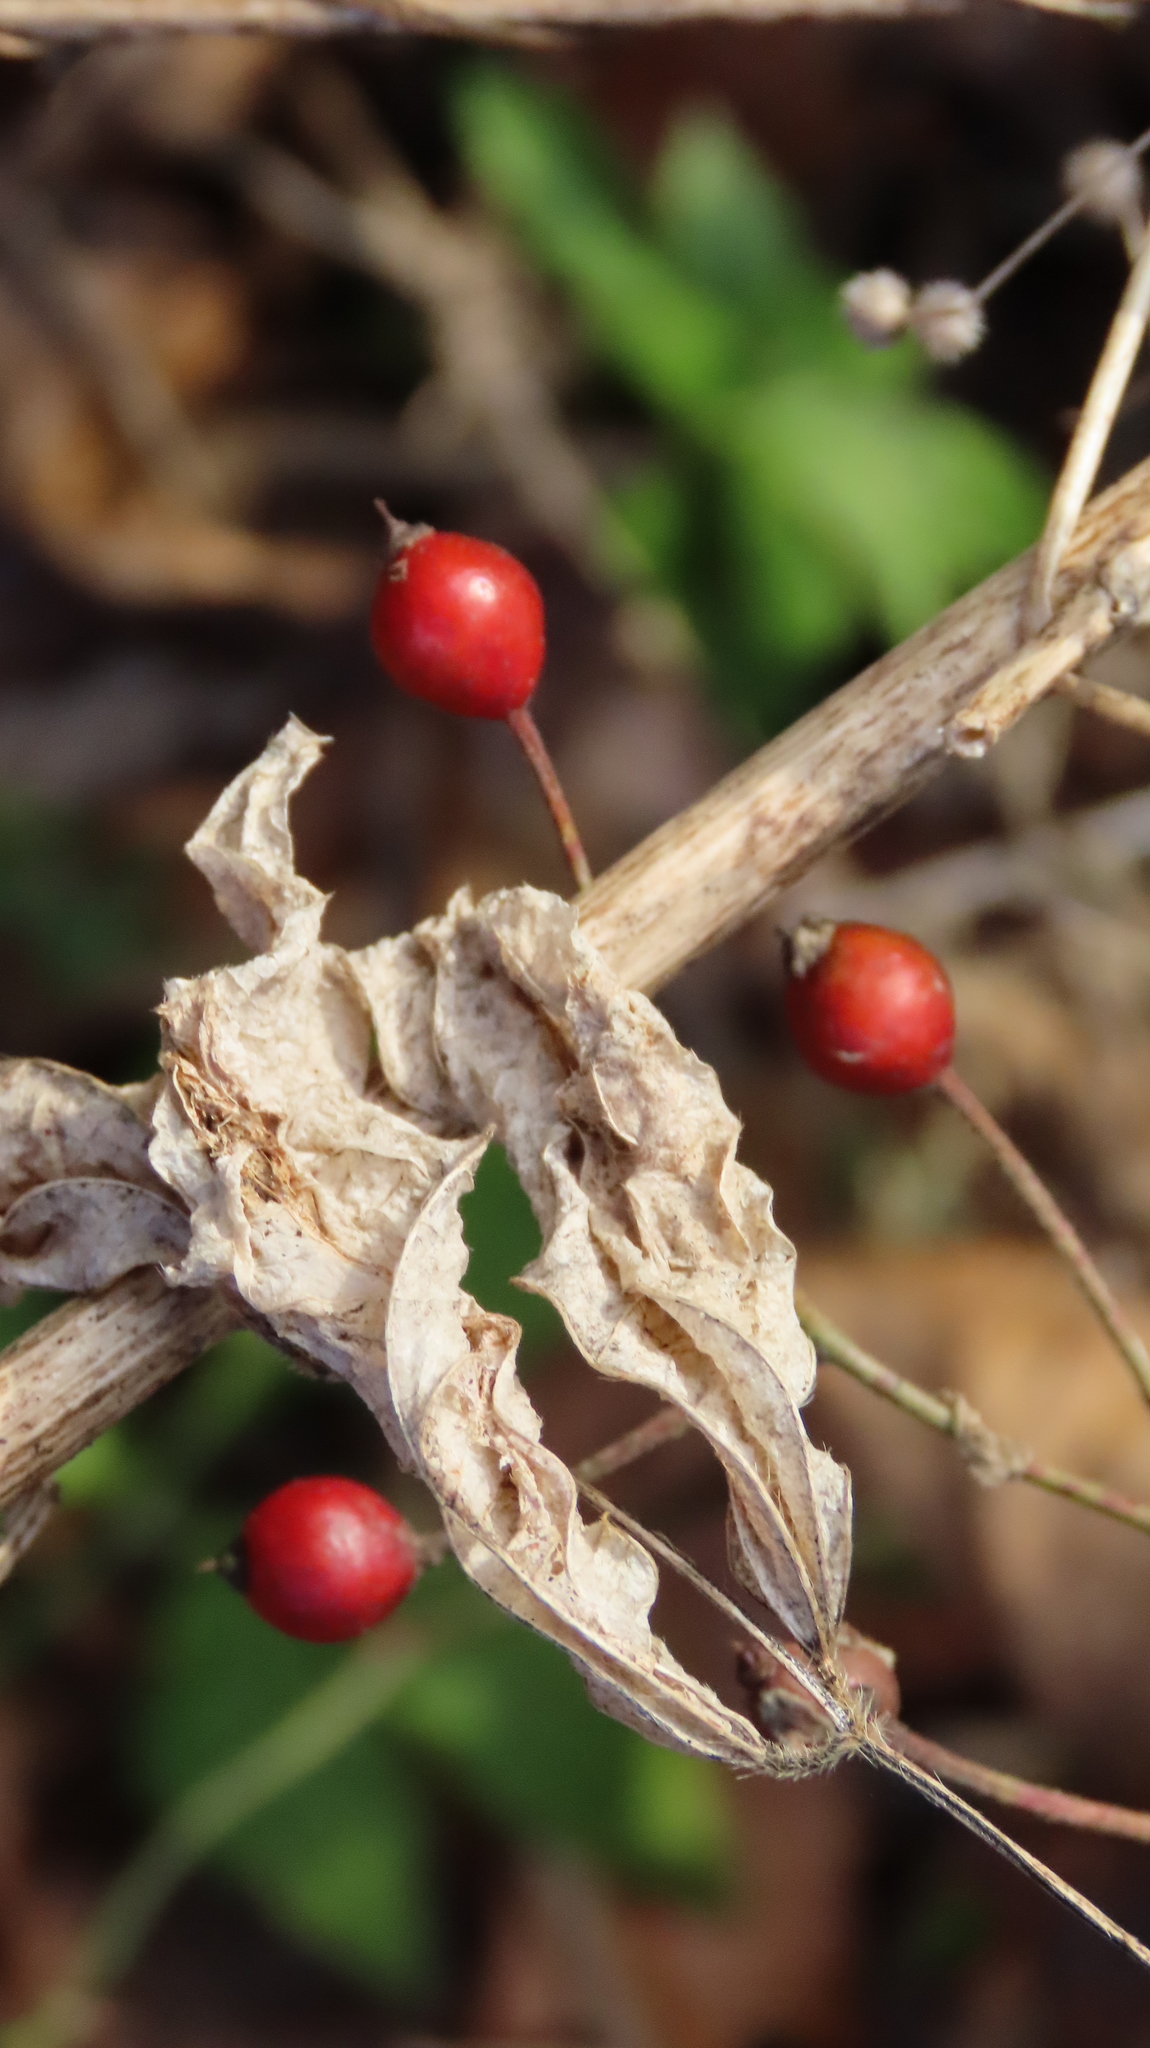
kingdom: Plantae
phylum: Tracheophyta
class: Magnoliopsida
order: Rosales
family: Rosaceae
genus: Rosa
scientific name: Rosa multiflora
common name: Multiflora rose
